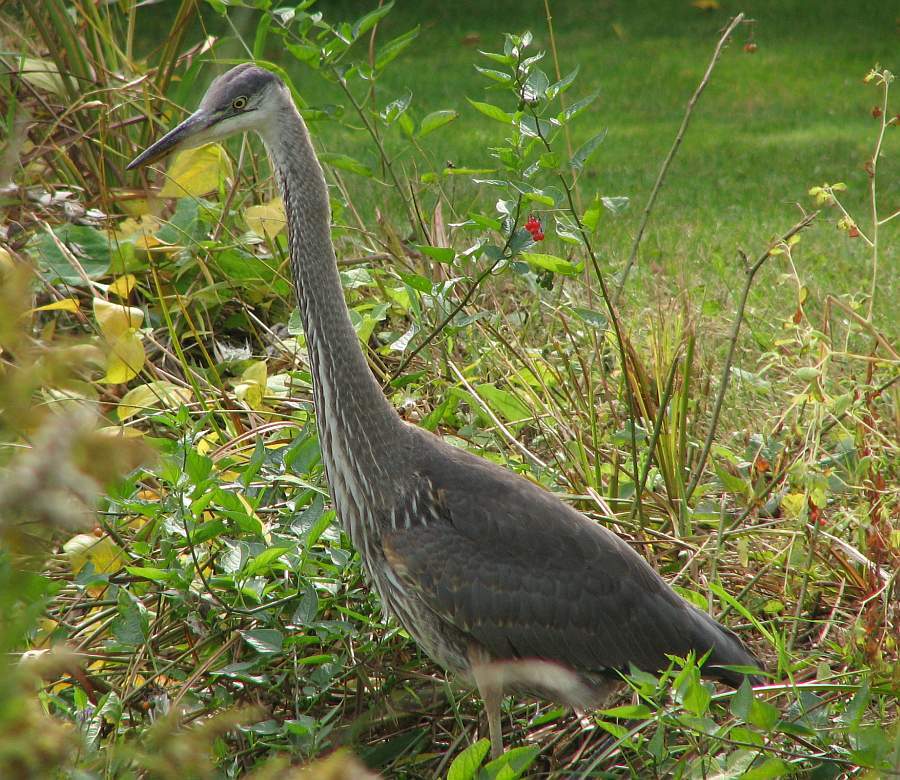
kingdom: Animalia
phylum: Chordata
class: Aves
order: Pelecaniformes
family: Ardeidae
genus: Ardea
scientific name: Ardea herodias
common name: Great blue heron
